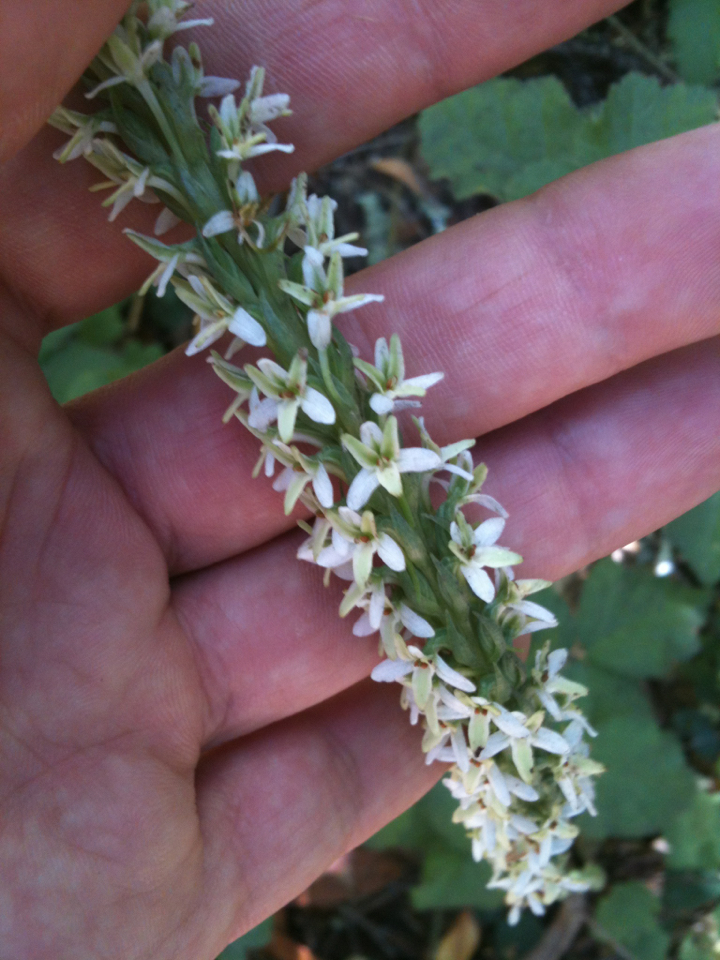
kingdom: Plantae
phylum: Tracheophyta
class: Liliopsida
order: Asparagales
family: Orchidaceae
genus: Platanthera
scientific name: Platanthera elegans
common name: Coast piperia
